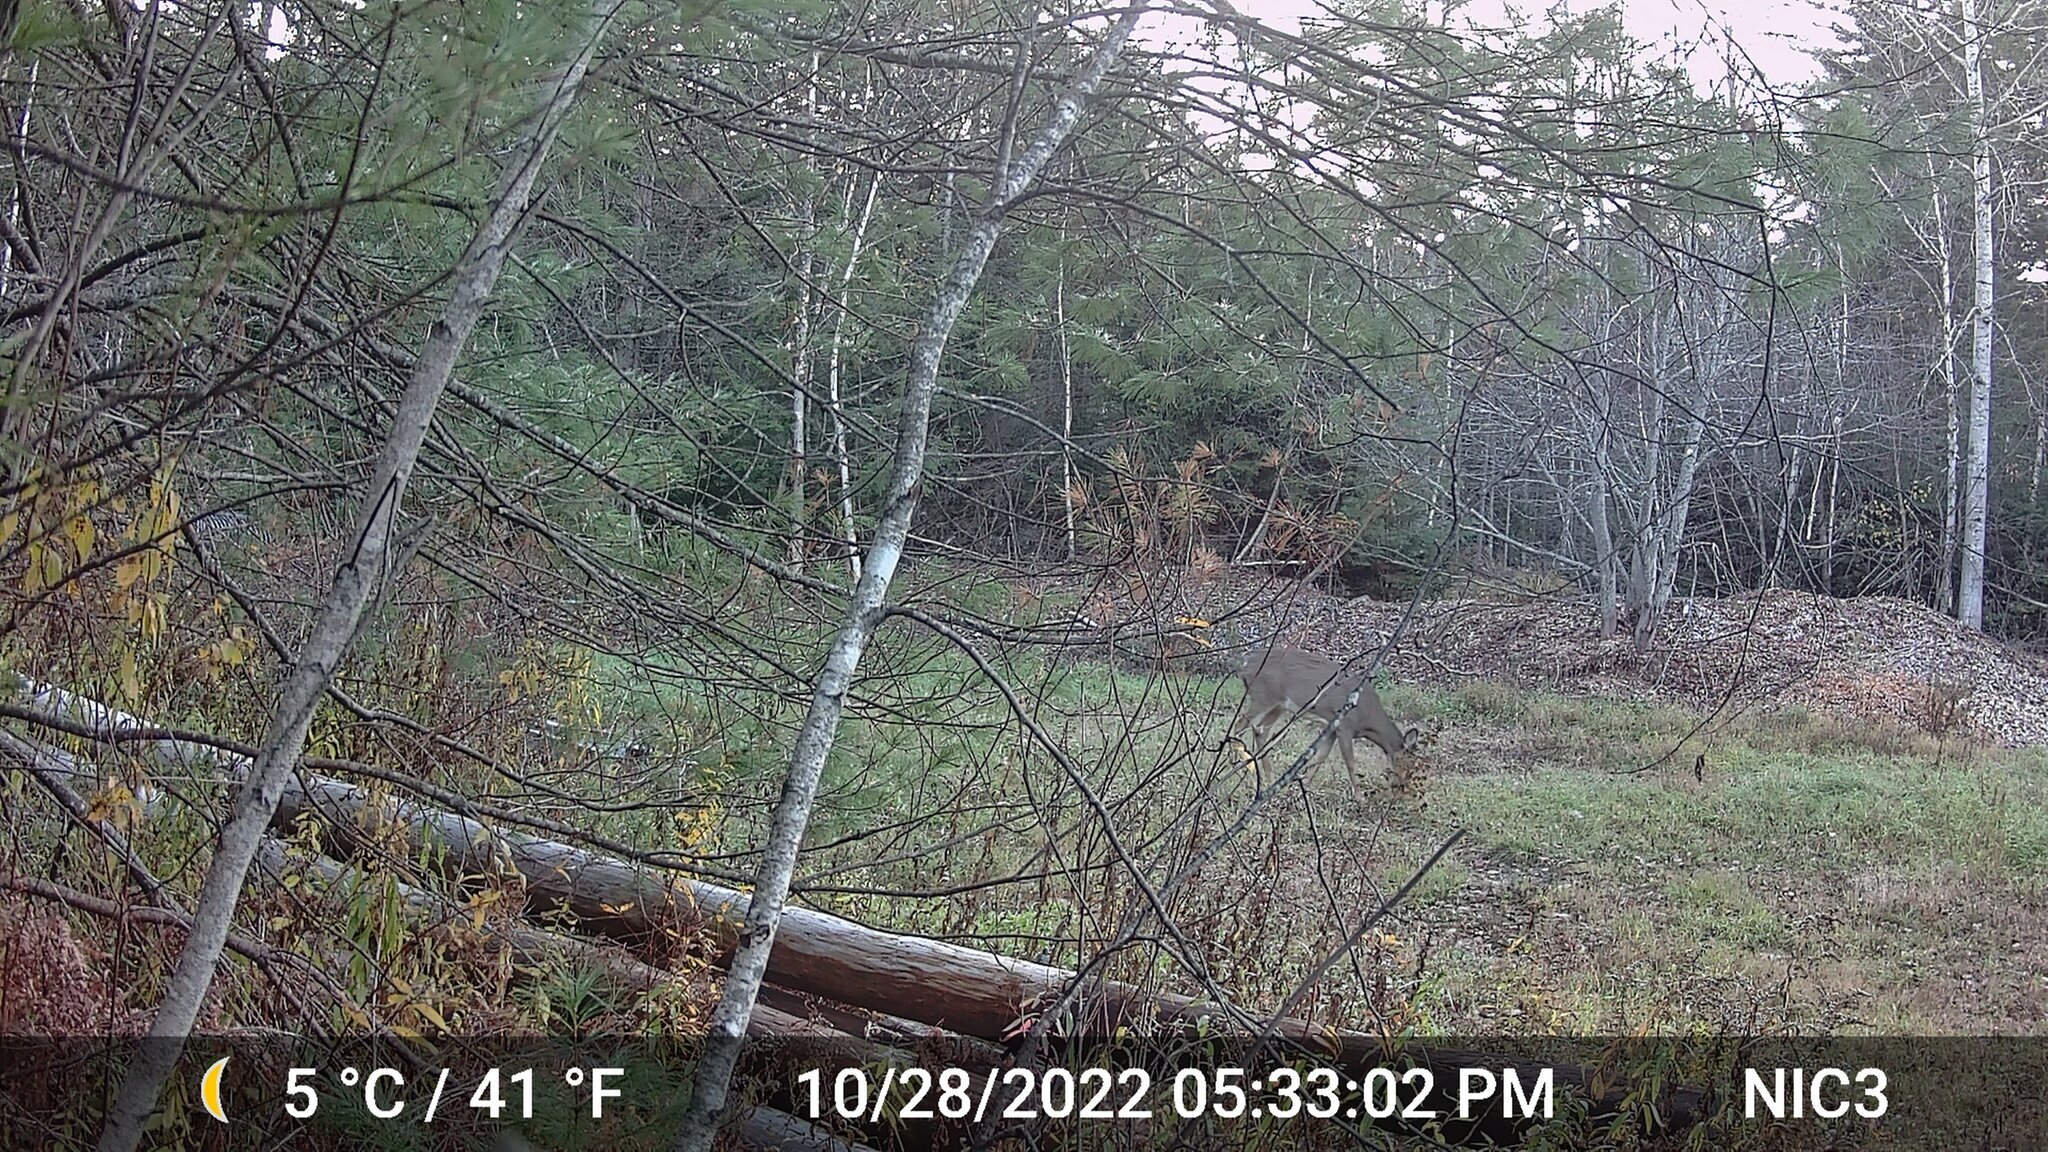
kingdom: Animalia
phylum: Chordata
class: Mammalia
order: Artiodactyla
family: Cervidae
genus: Odocoileus
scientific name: Odocoileus virginianus
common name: White-tailed deer
